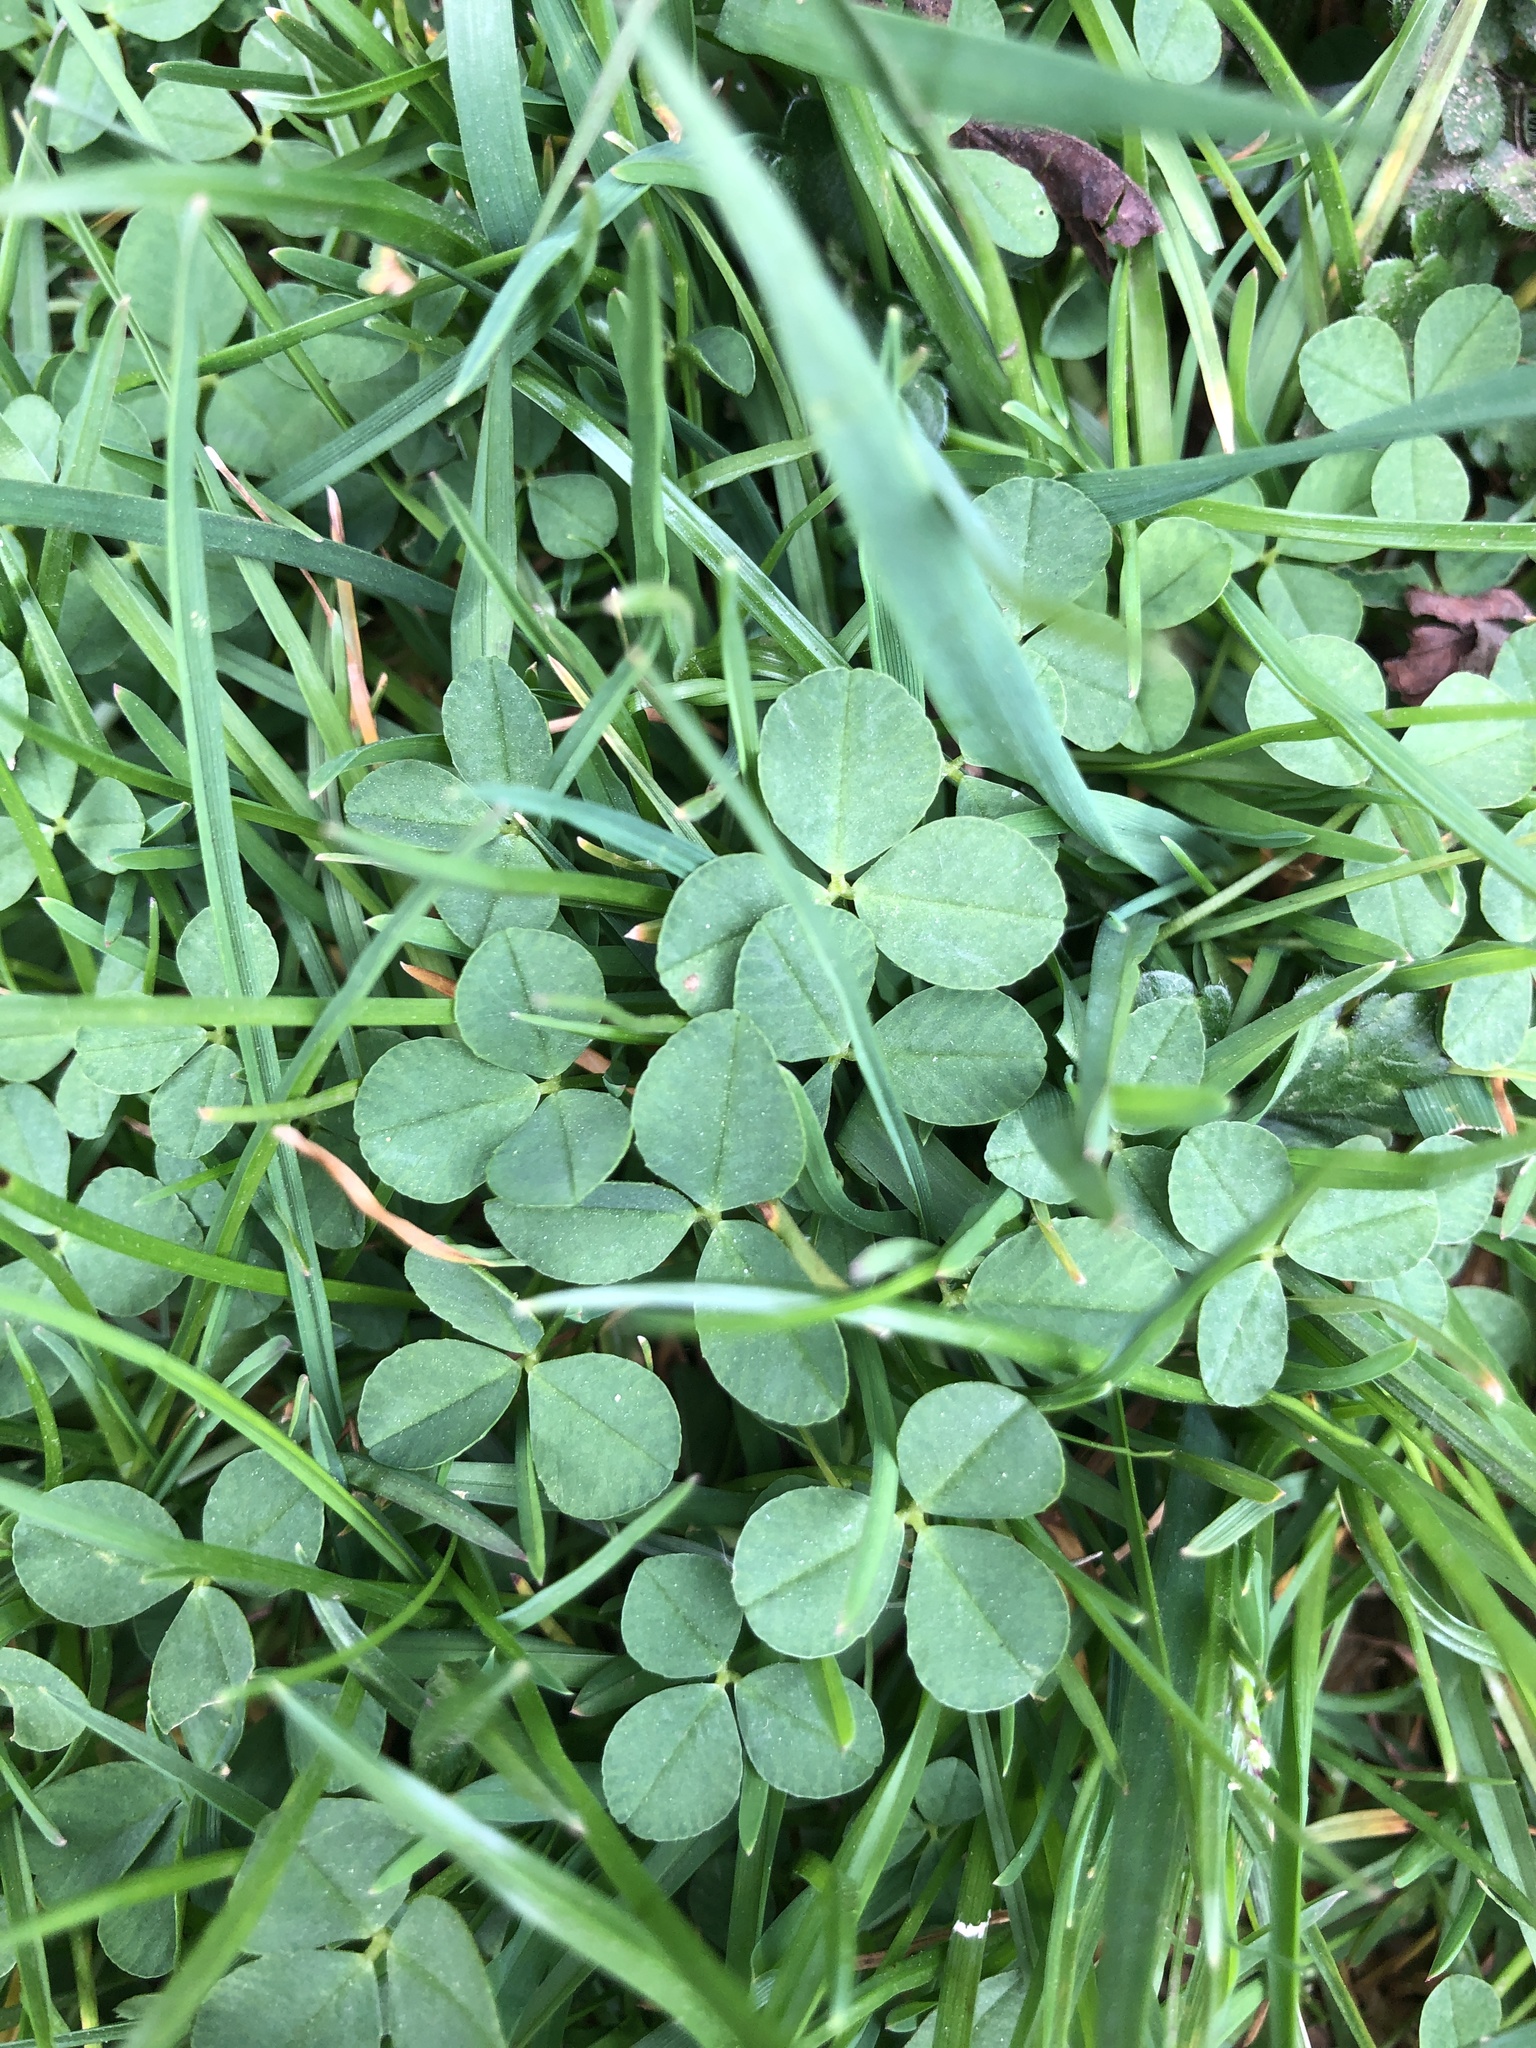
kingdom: Plantae
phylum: Tracheophyta
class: Magnoliopsida
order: Fabales
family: Fabaceae
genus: Trifolium
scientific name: Trifolium repens
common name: White clover
